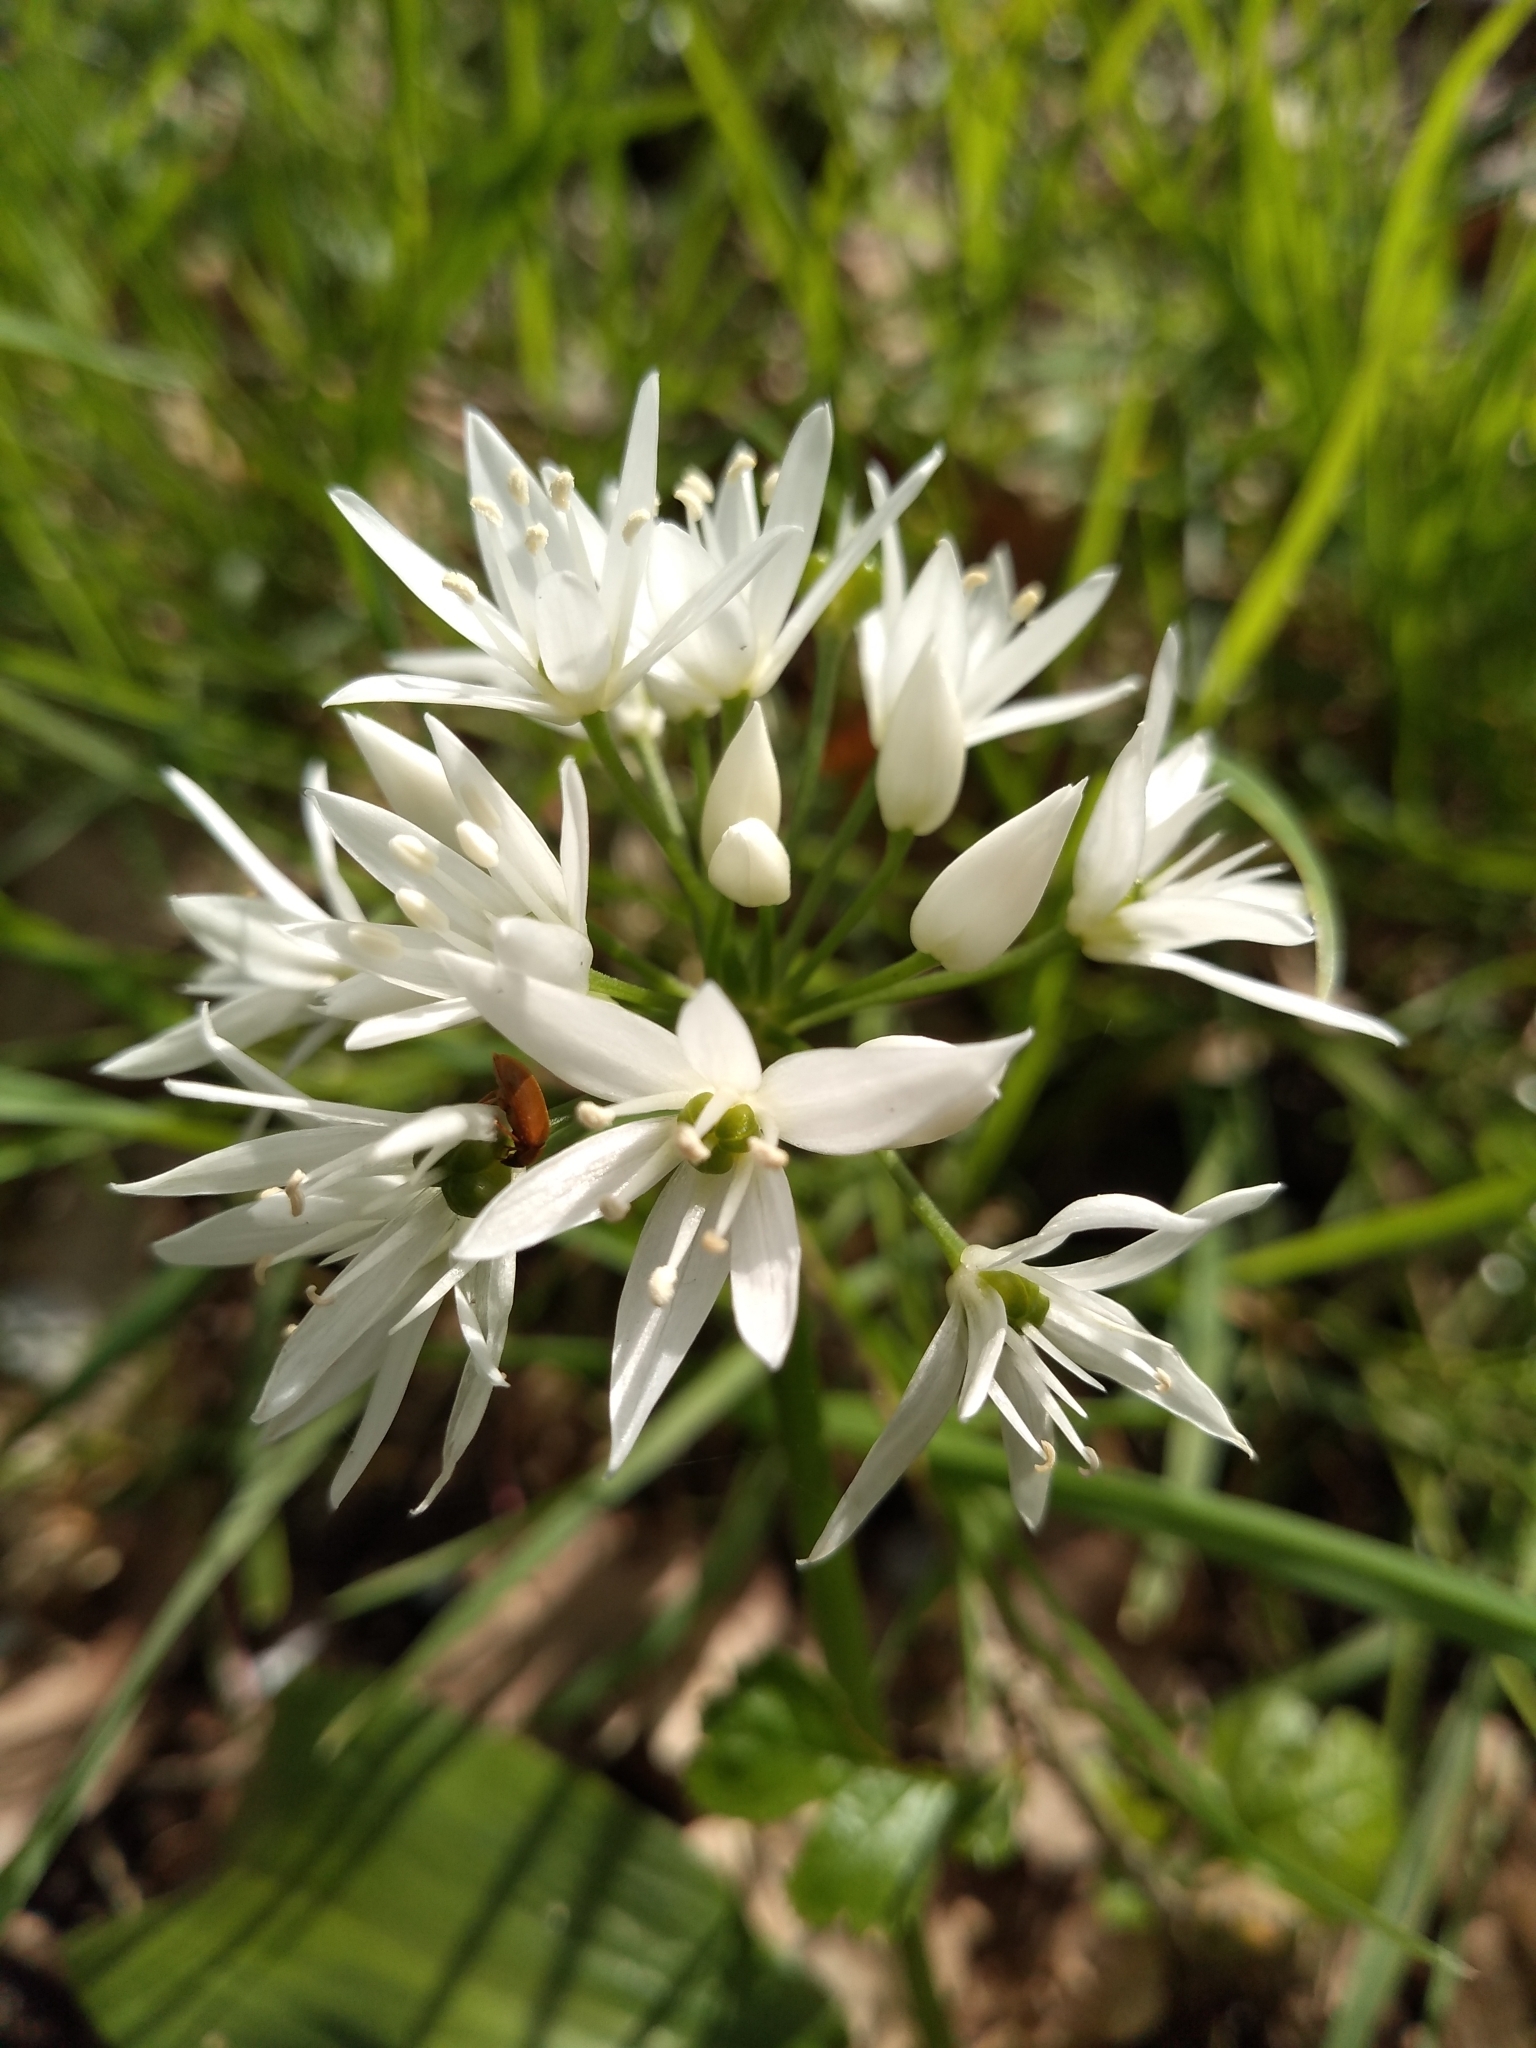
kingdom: Plantae
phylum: Tracheophyta
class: Liliopsida
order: Asparagales
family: Amaryllidaceae
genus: Allium
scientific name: Allium ursinum
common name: Ramsons
